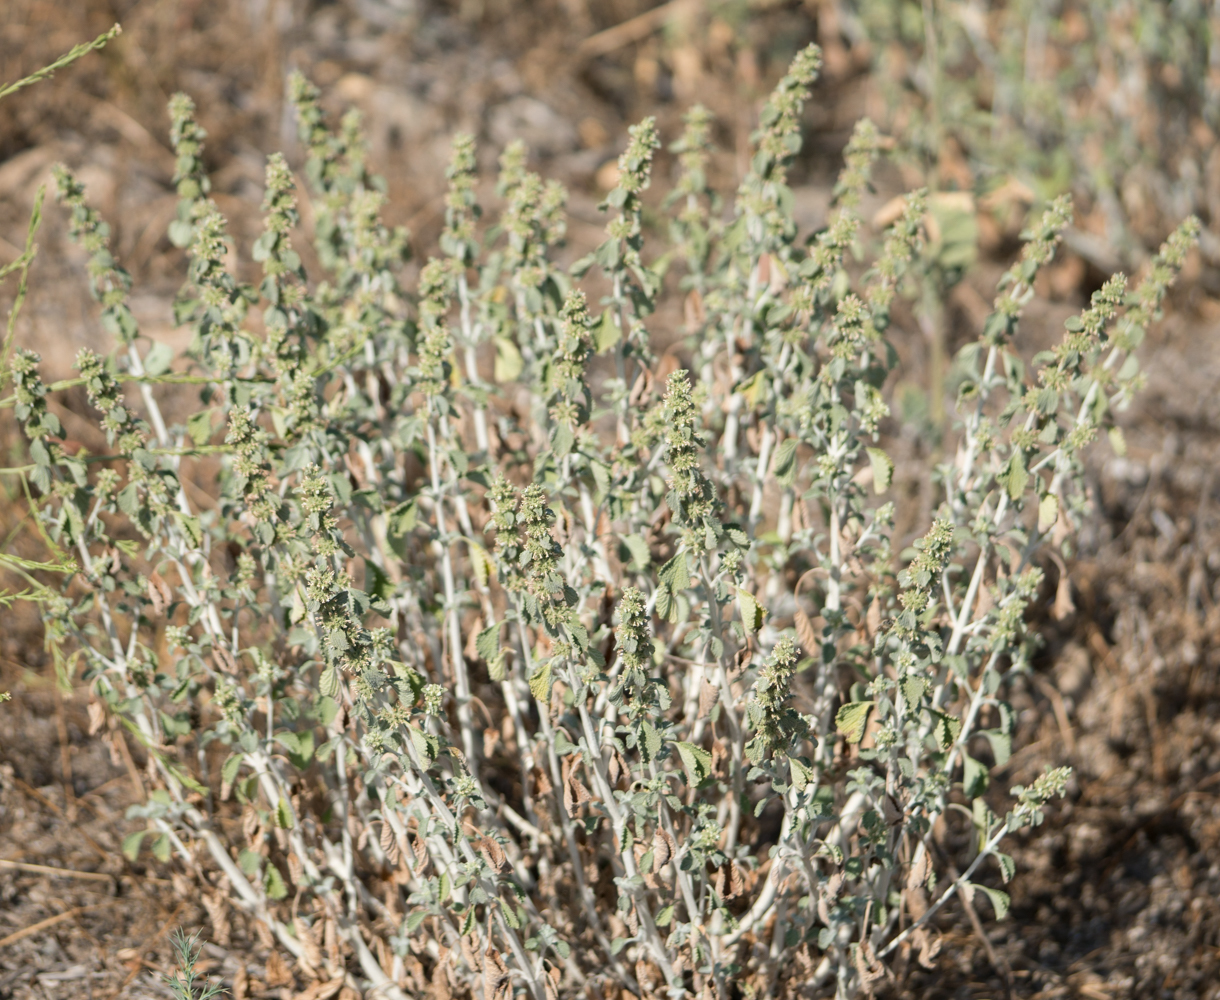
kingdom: Plantae
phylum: Tracheophyta
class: Magnoliopsida
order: Lamiales
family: Lamiaceae
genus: Marrubium
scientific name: Marrubium vulgare
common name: Horehound
